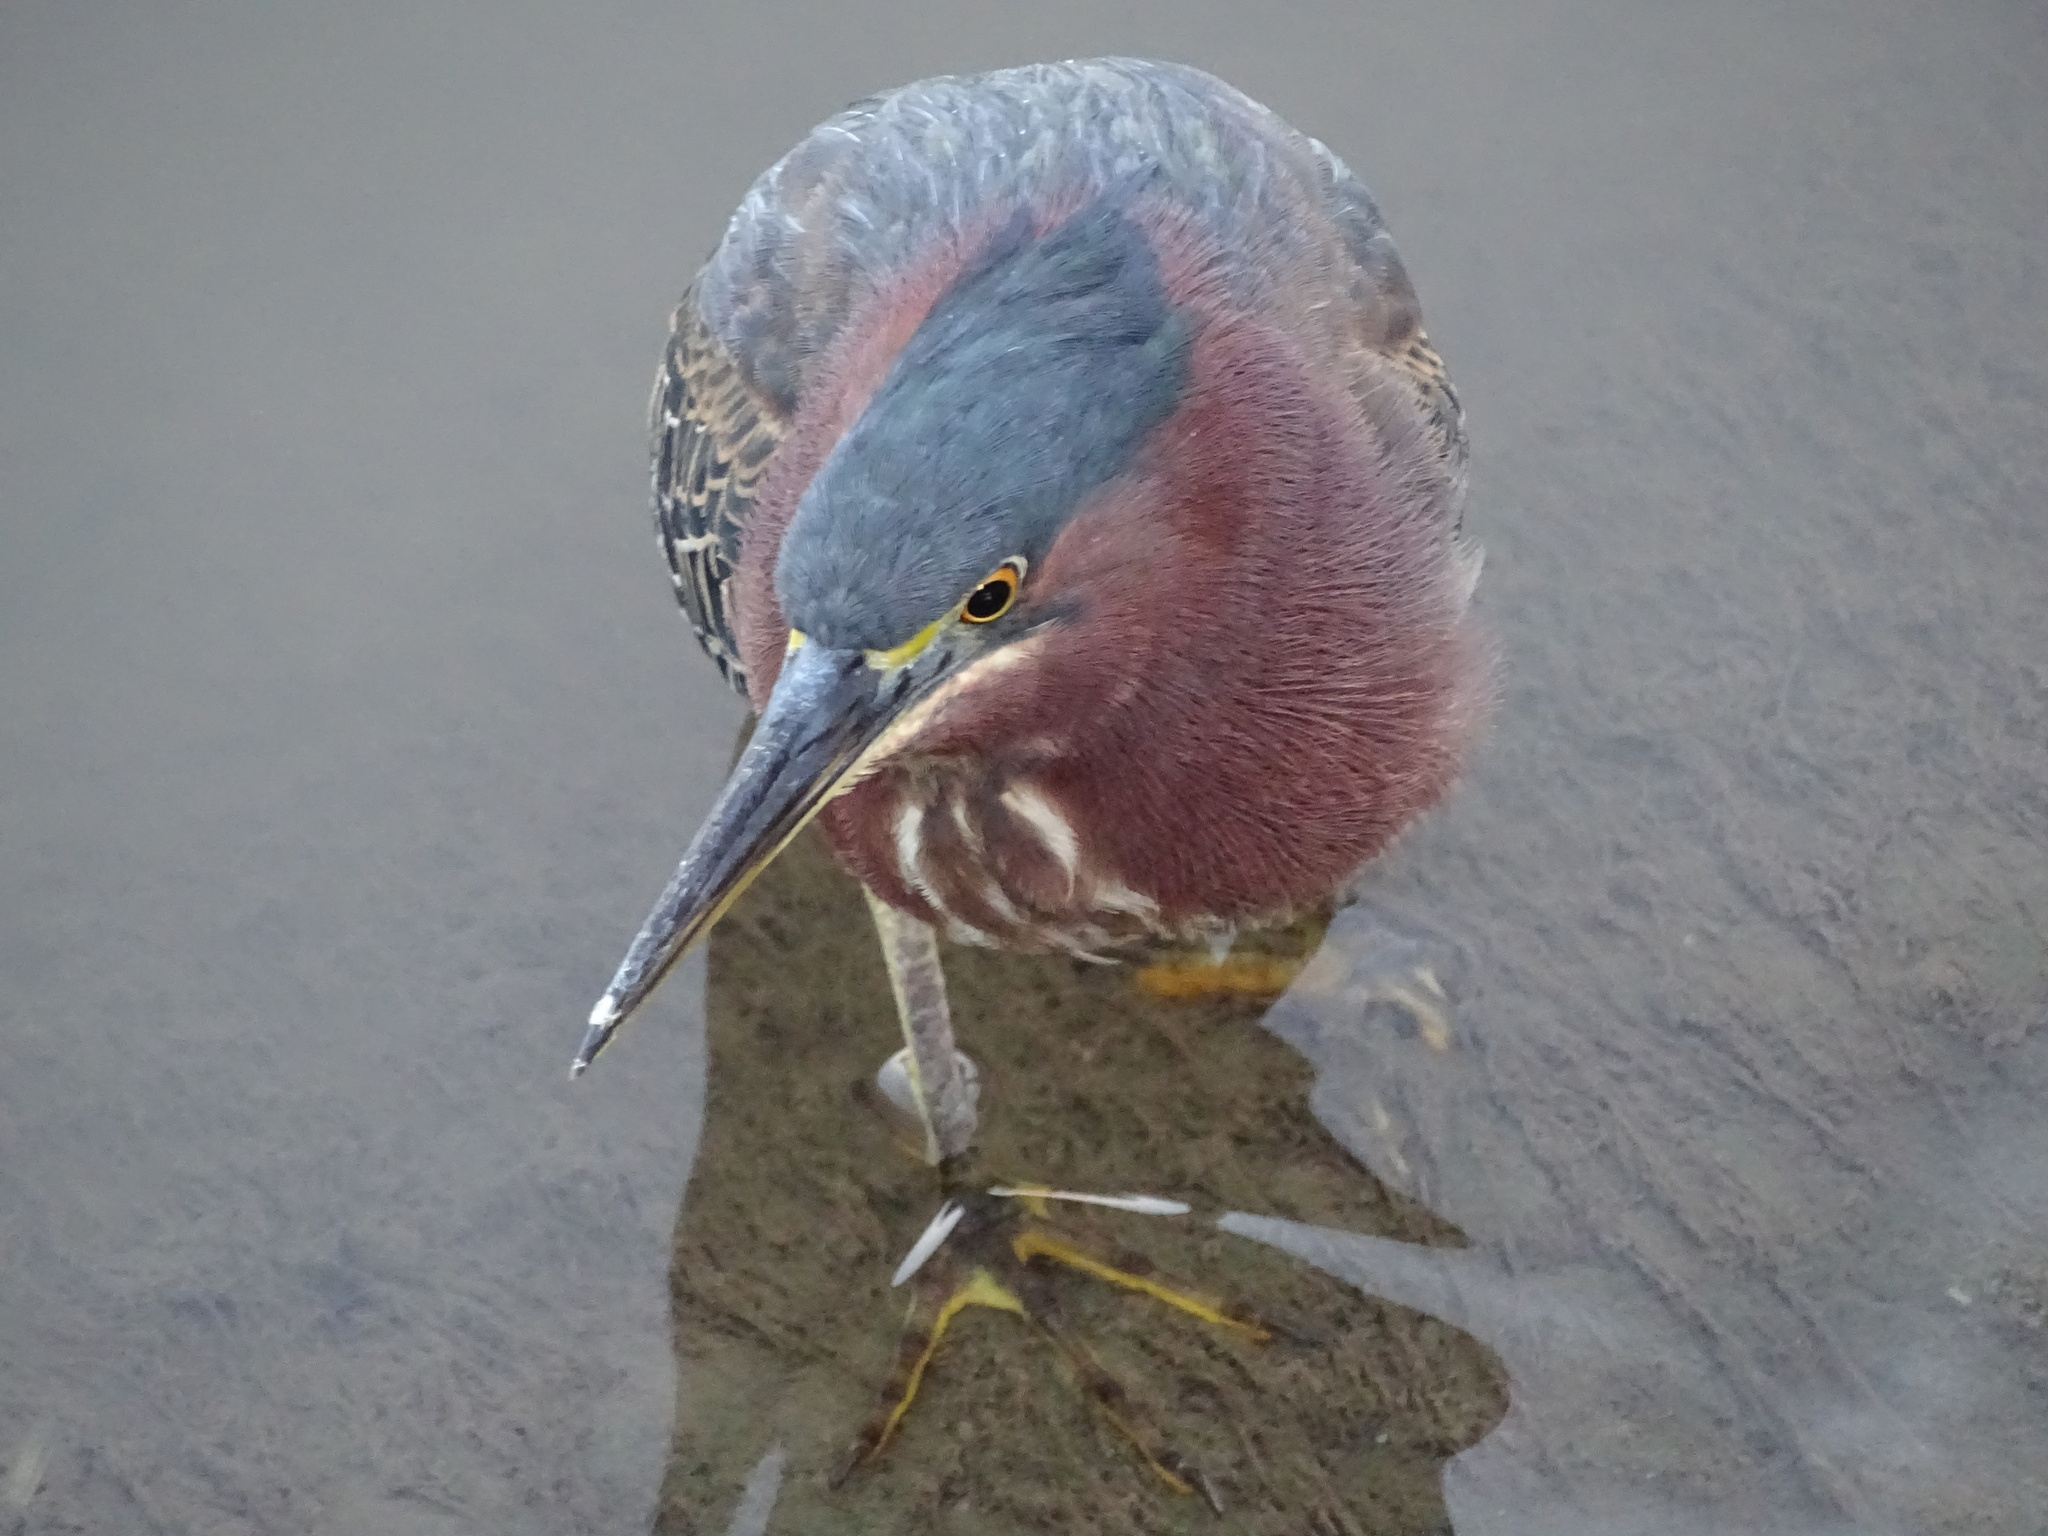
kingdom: Animalia
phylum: Chordata
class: Aves
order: Pelecaniformes
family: Ardeidae
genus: Butorides
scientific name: Butorides virescens
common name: Green heron
